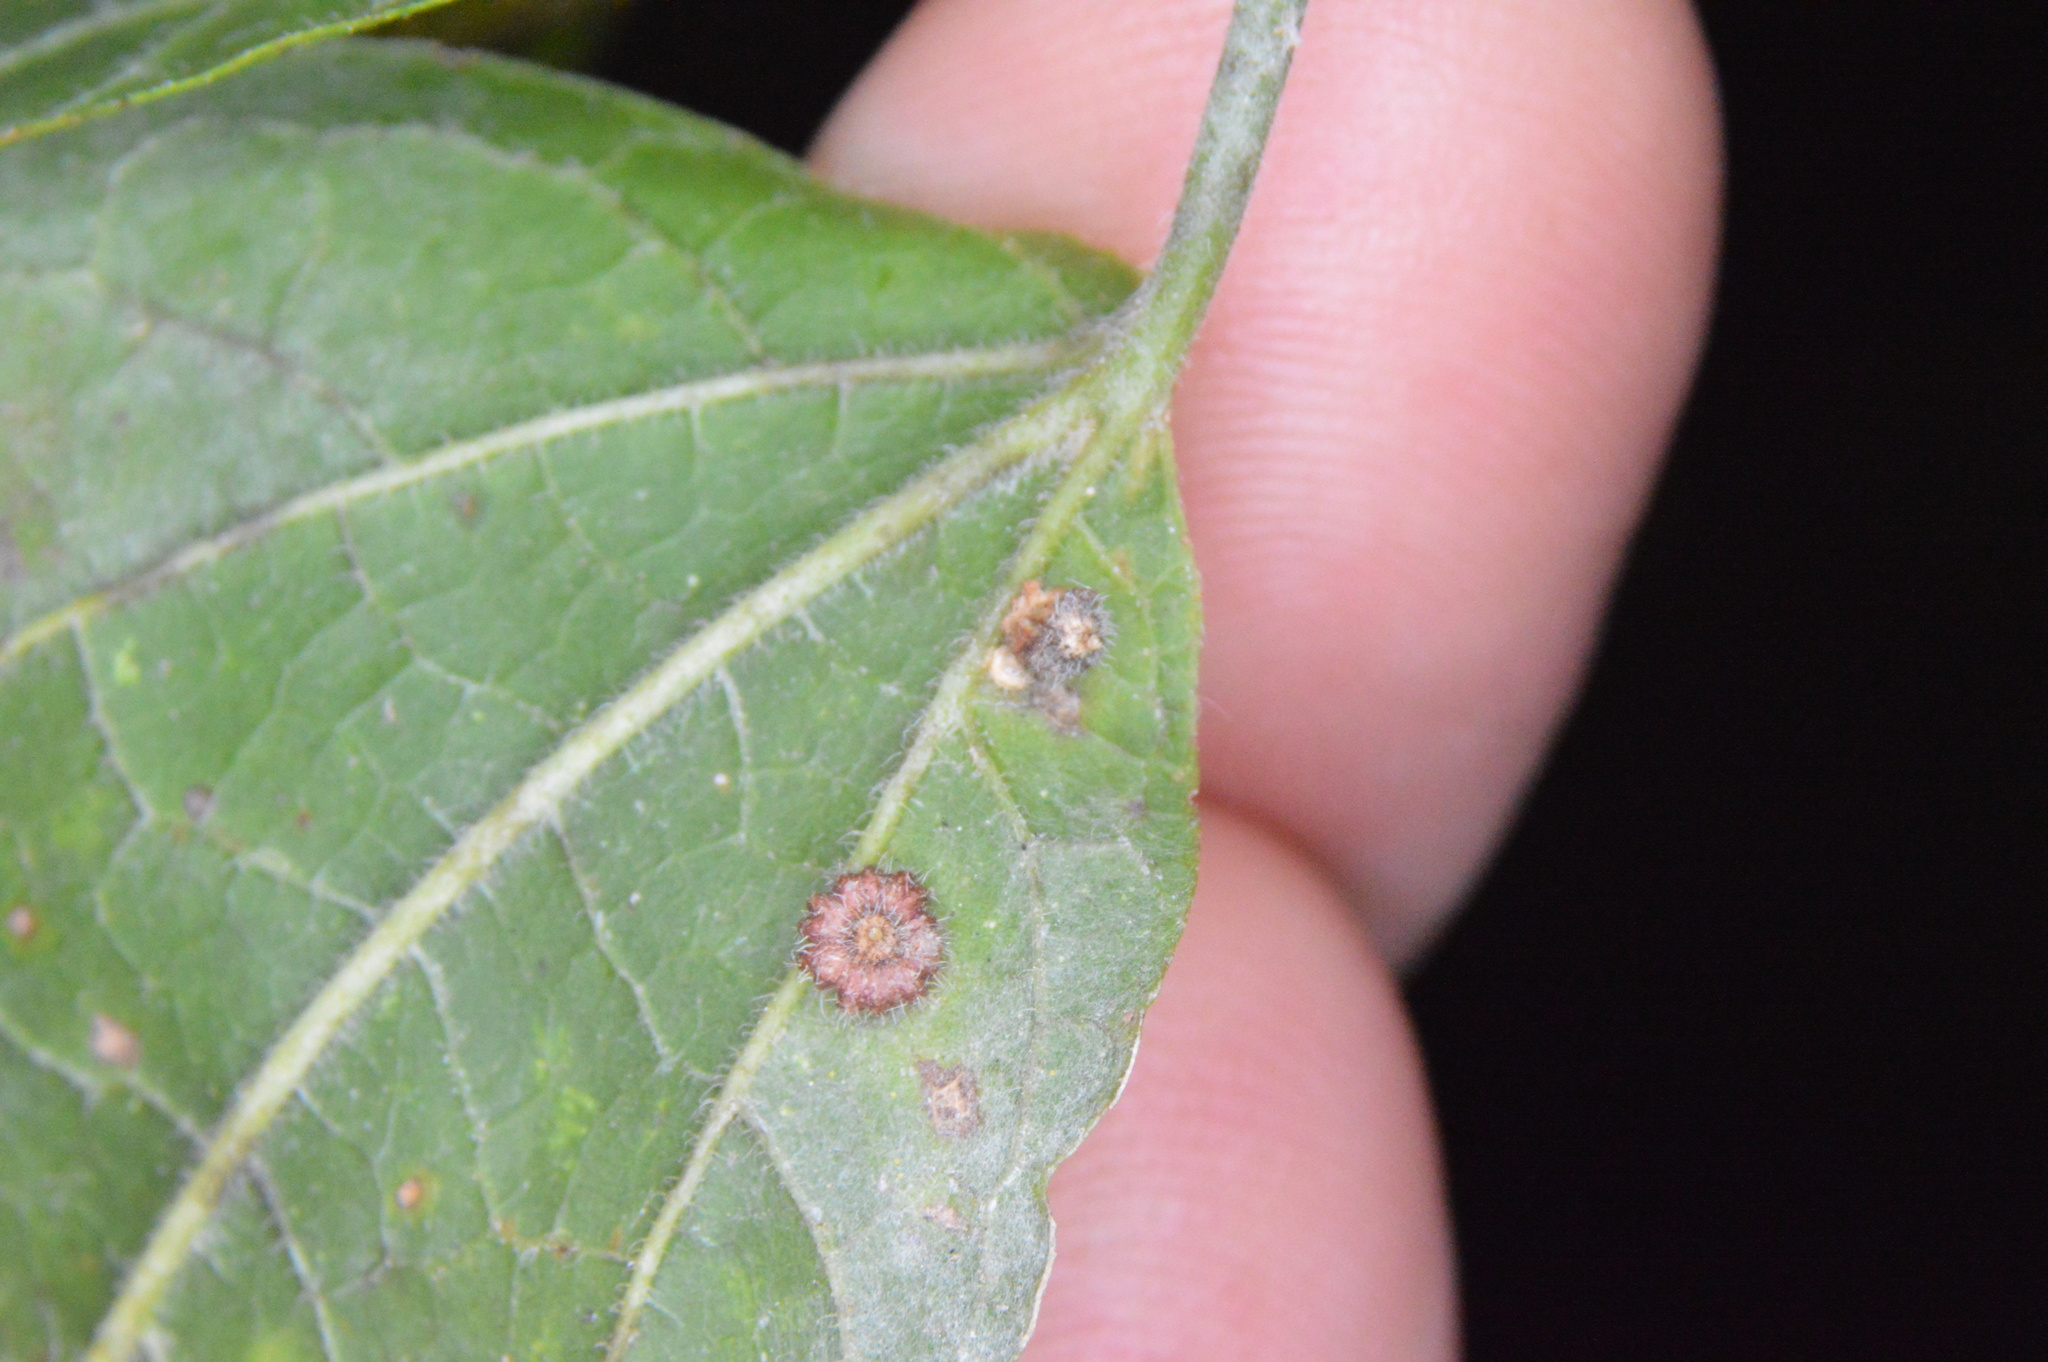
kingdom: Animalia
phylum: Arthropoda
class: Insecta
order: Diptera
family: Cecidomyiidae
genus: Celticecis
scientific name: Celticecis capsularis
